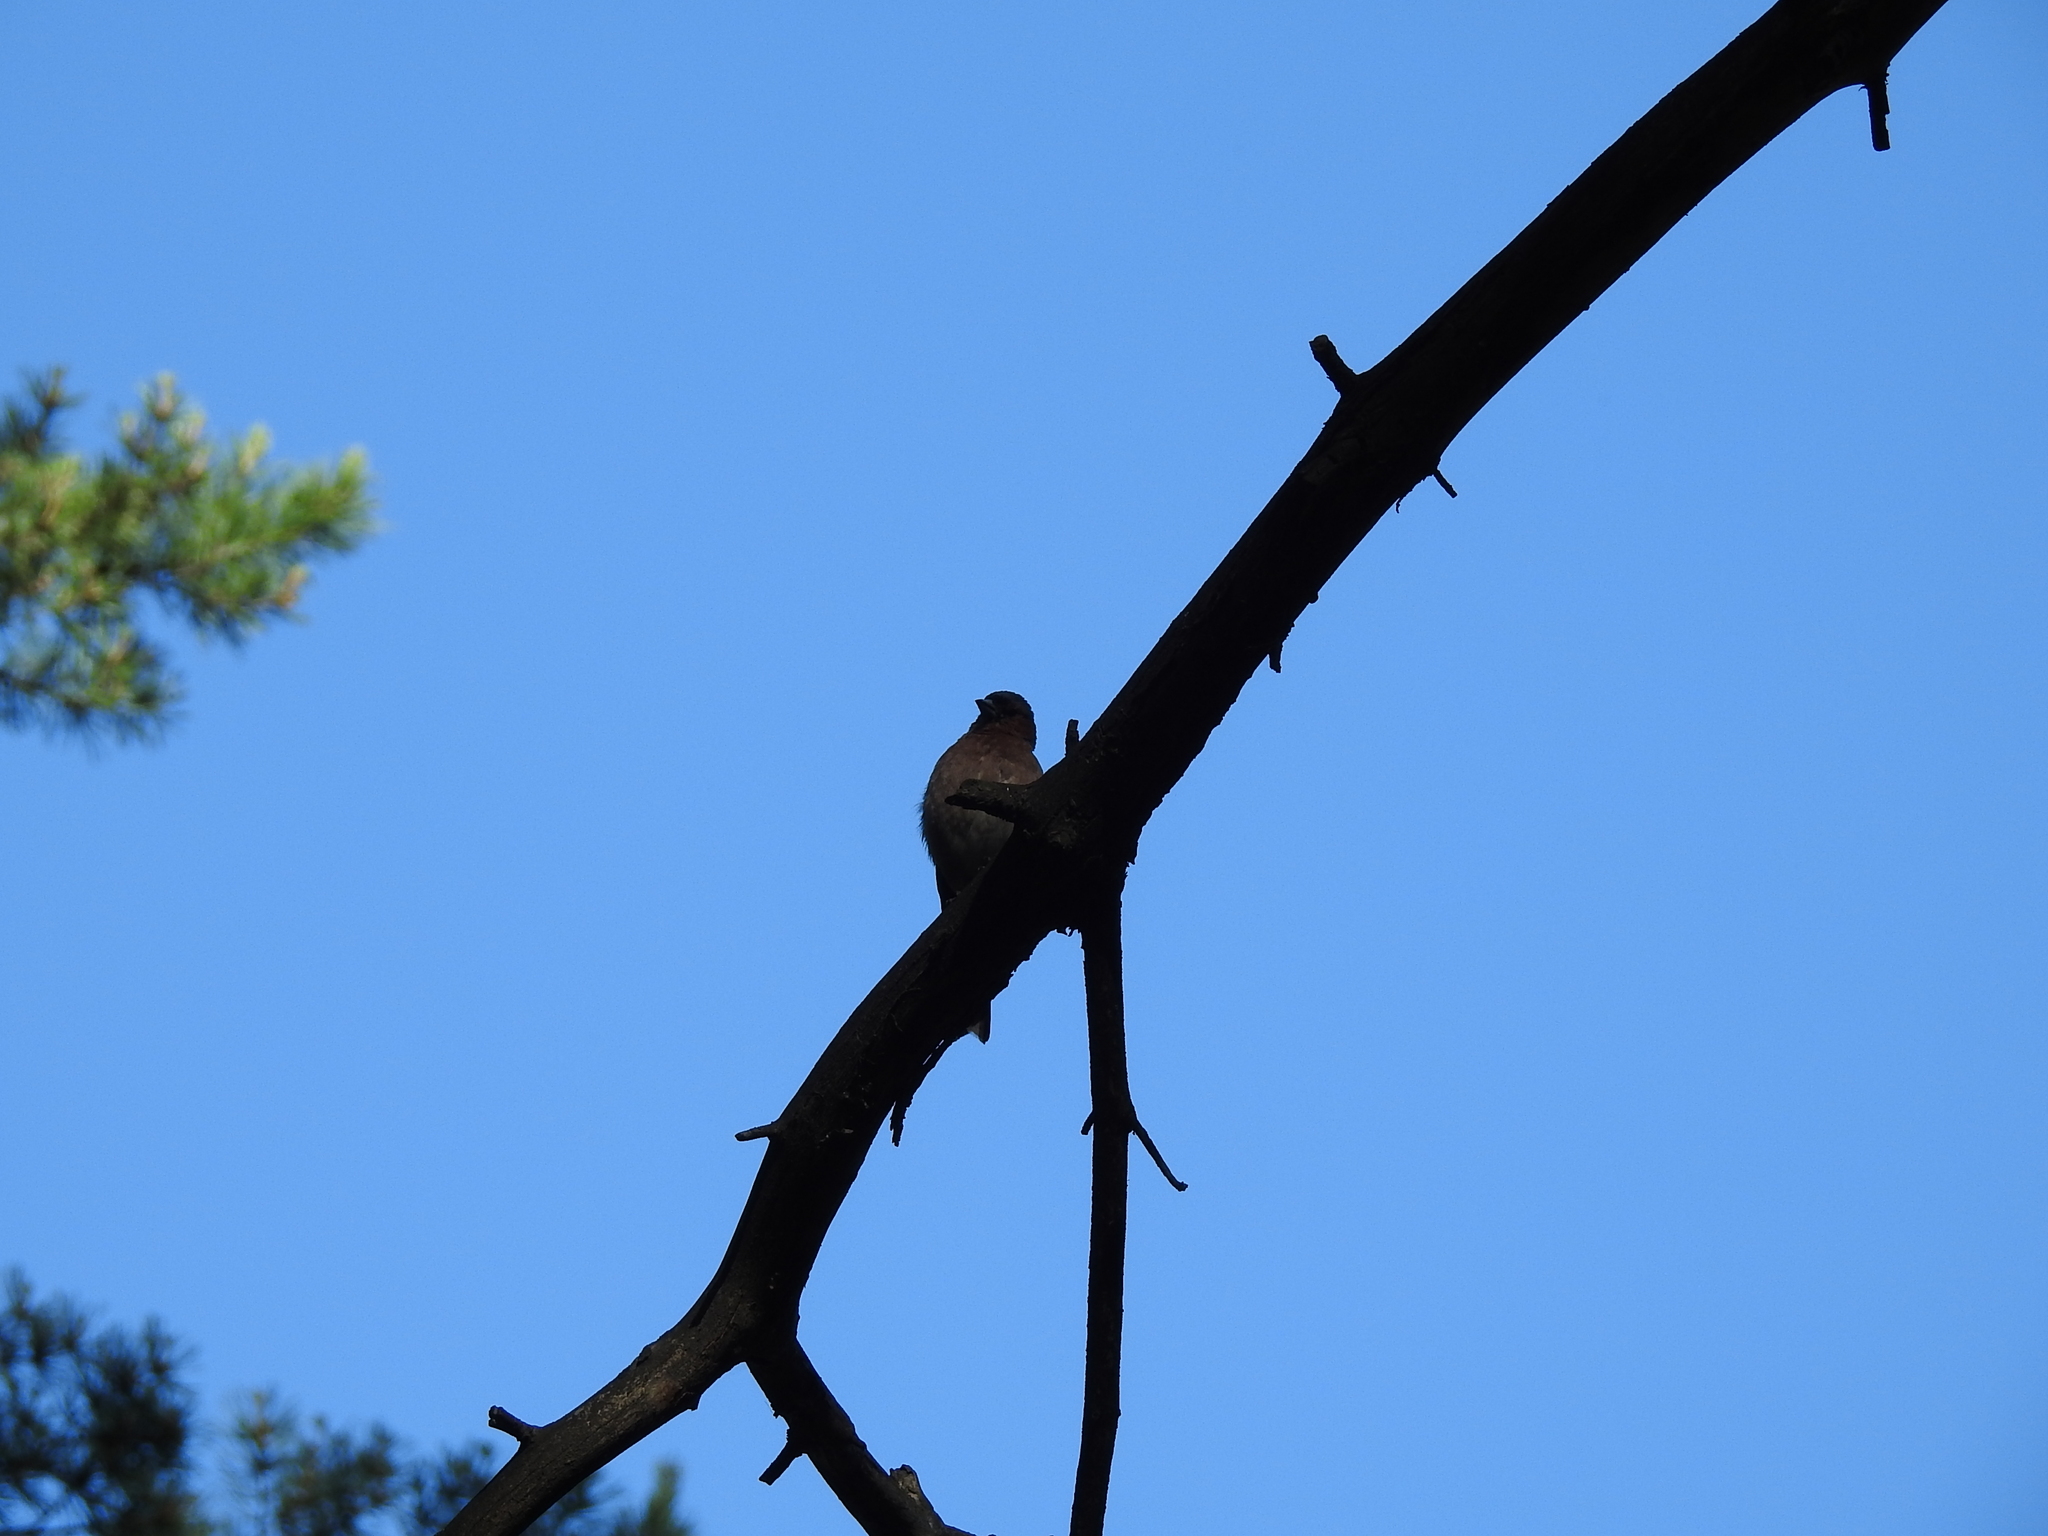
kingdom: Animalia
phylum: Chordata
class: Aves
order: Passeriformes
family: Fringillidae
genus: Fringilla
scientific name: Fringilla coelebs
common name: Common chaffinch
